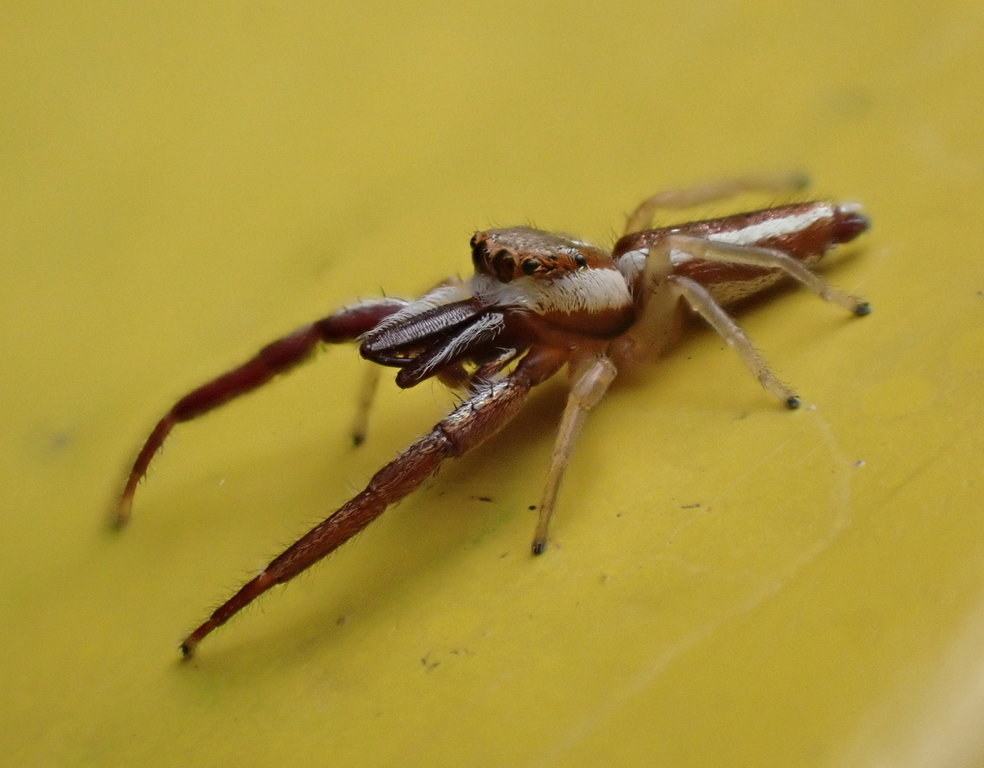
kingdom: Animalia
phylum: Arthropoda
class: Arachnida
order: Araneae
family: Salticidae
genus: Hentzia
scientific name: Hentzia palmarum
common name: Common hentz jumping spider
